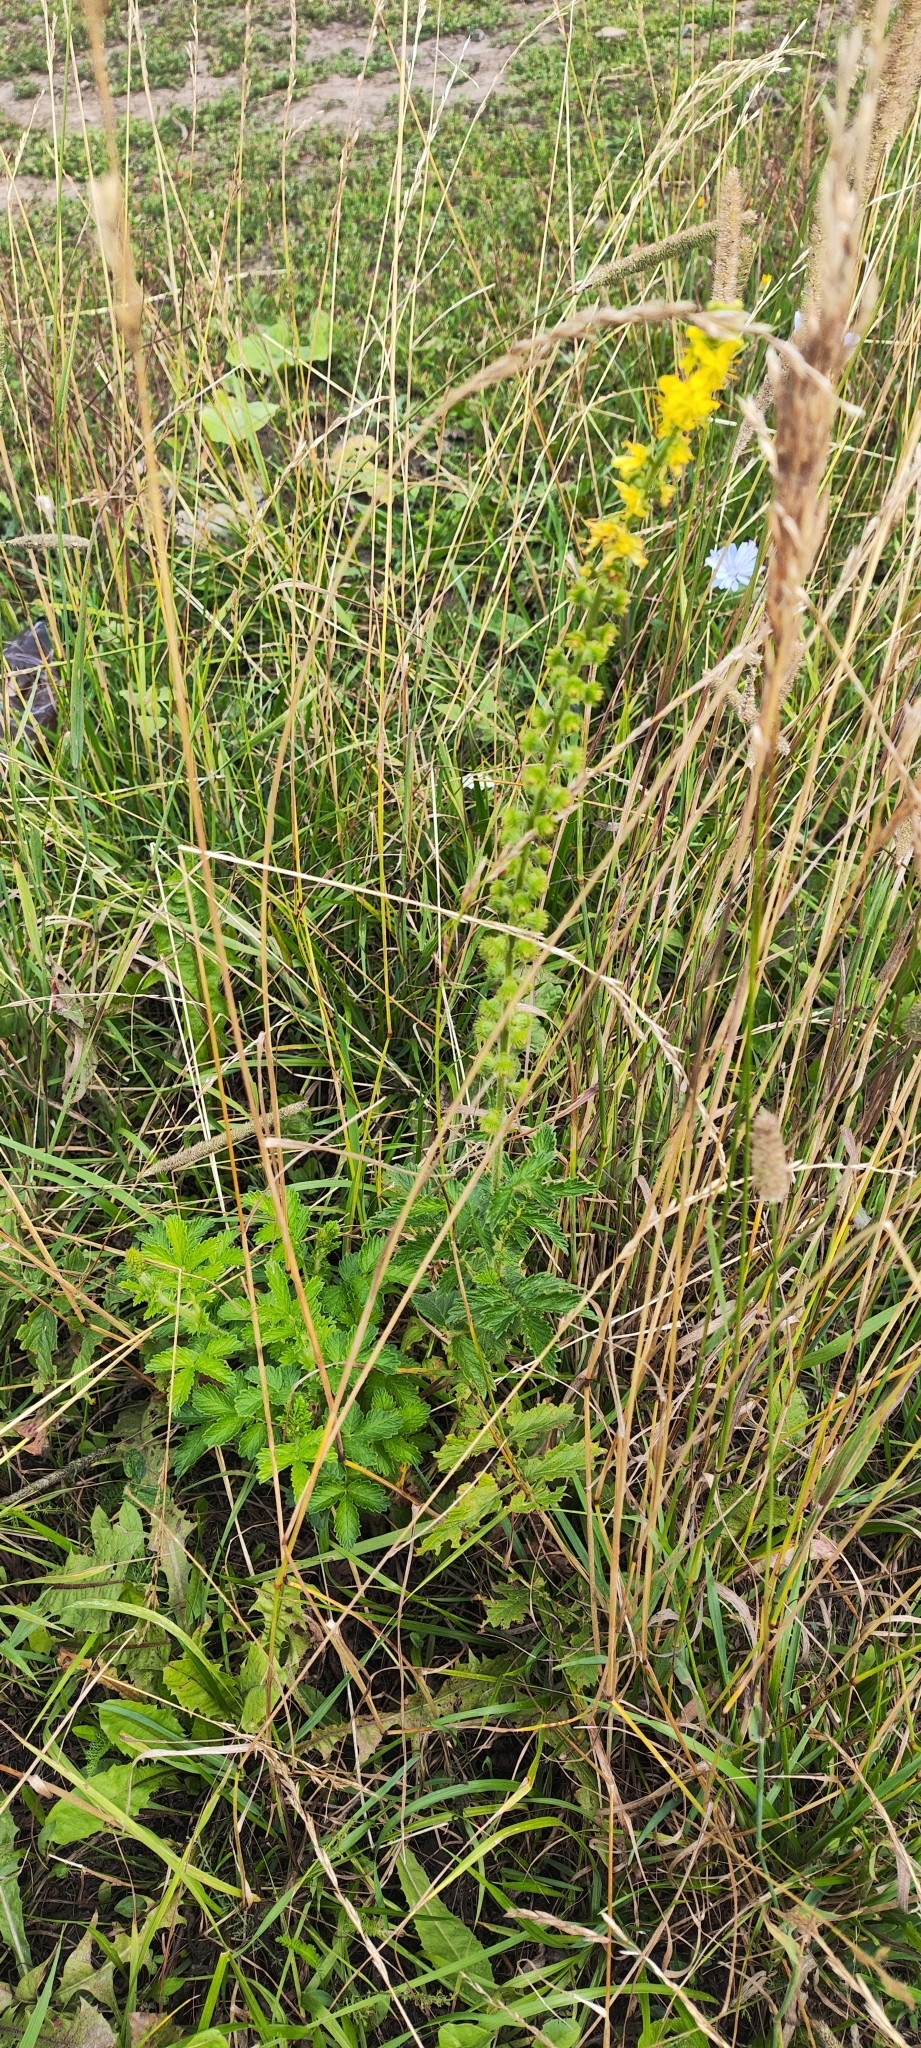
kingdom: Plantae
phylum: Tracheophyta
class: Magnoliopsida
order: Rosales
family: Rosaceae
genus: Agrimonia
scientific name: Agrimonia eupatoria
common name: Agrimony
